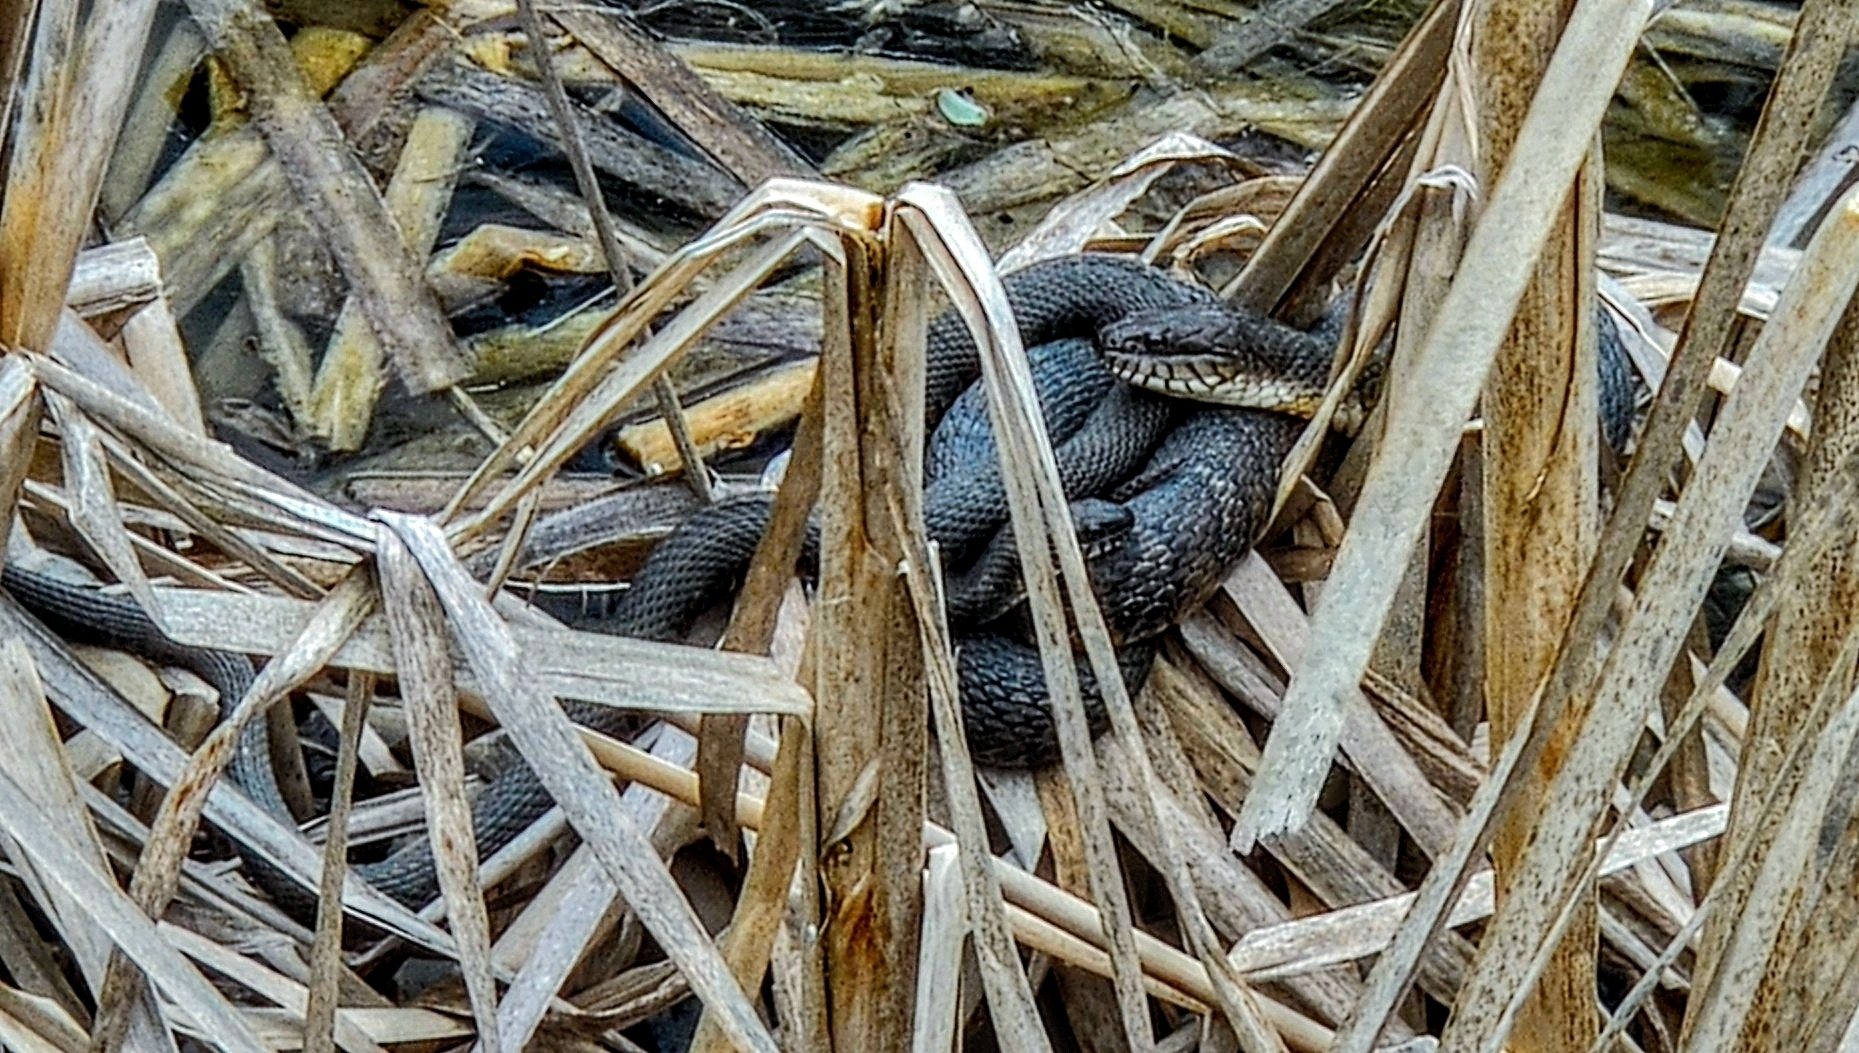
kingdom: Animalia
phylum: Chordata
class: Squamata
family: Colubridae
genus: Nerodia
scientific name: Nerodia sipedon
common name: Northern water snake
